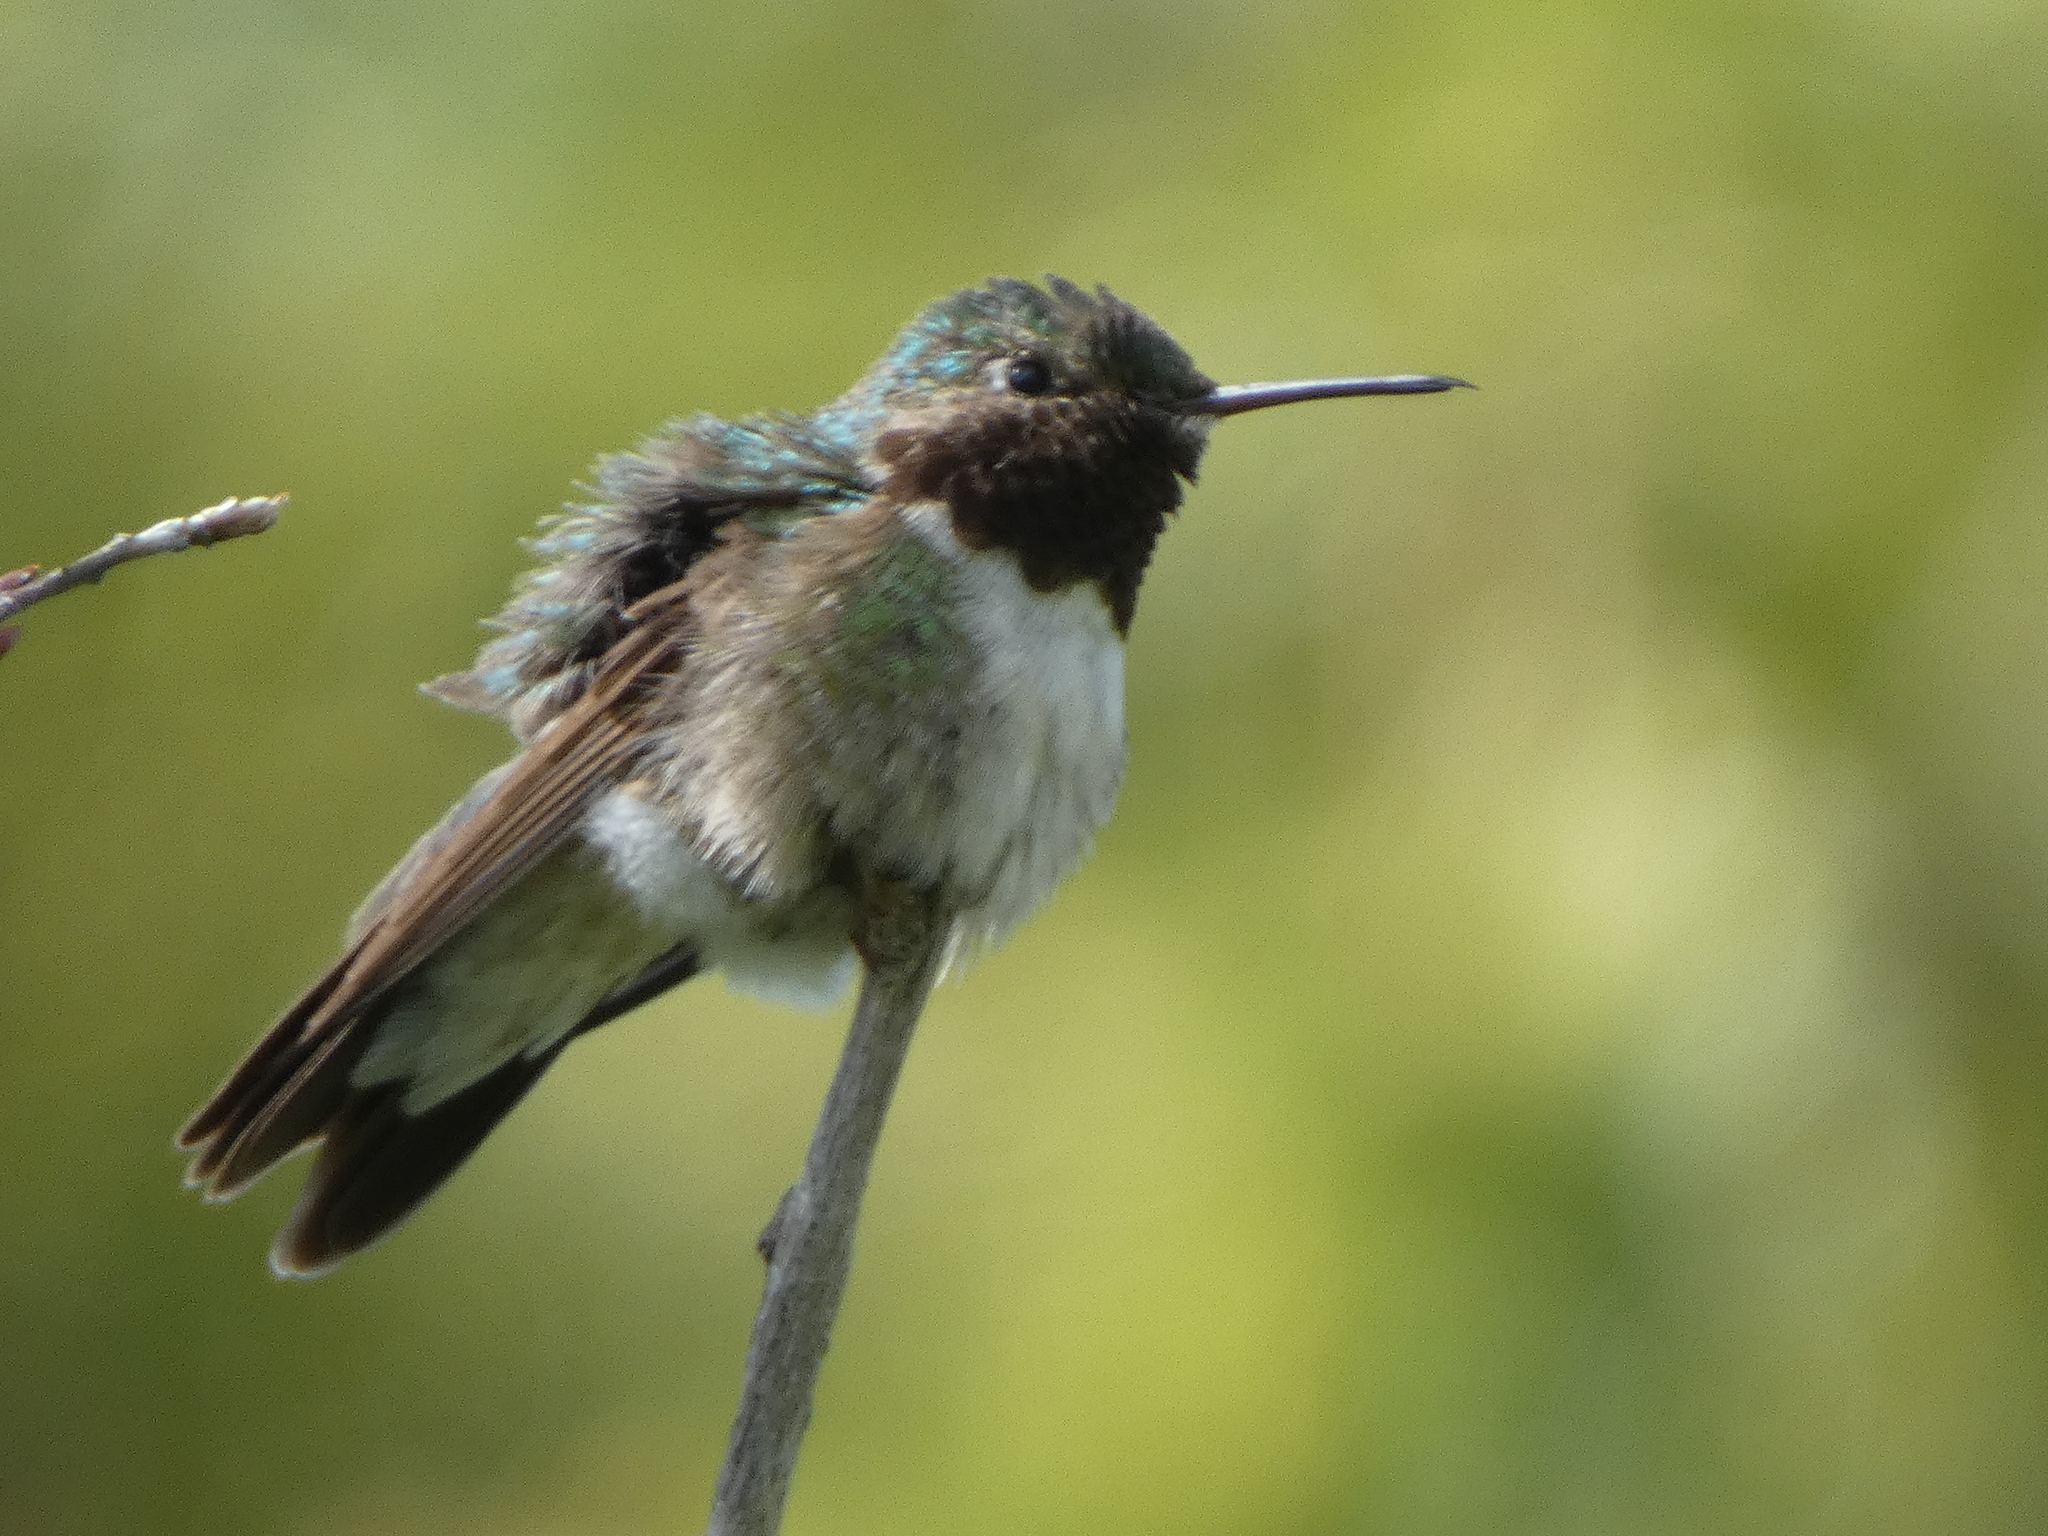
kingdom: Animalia
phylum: Chordata
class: Aves
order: Apodiformes
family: Trochilidae
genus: Selasphorus
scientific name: Selasphorus platycercus
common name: Broad-tailed hummingbird
